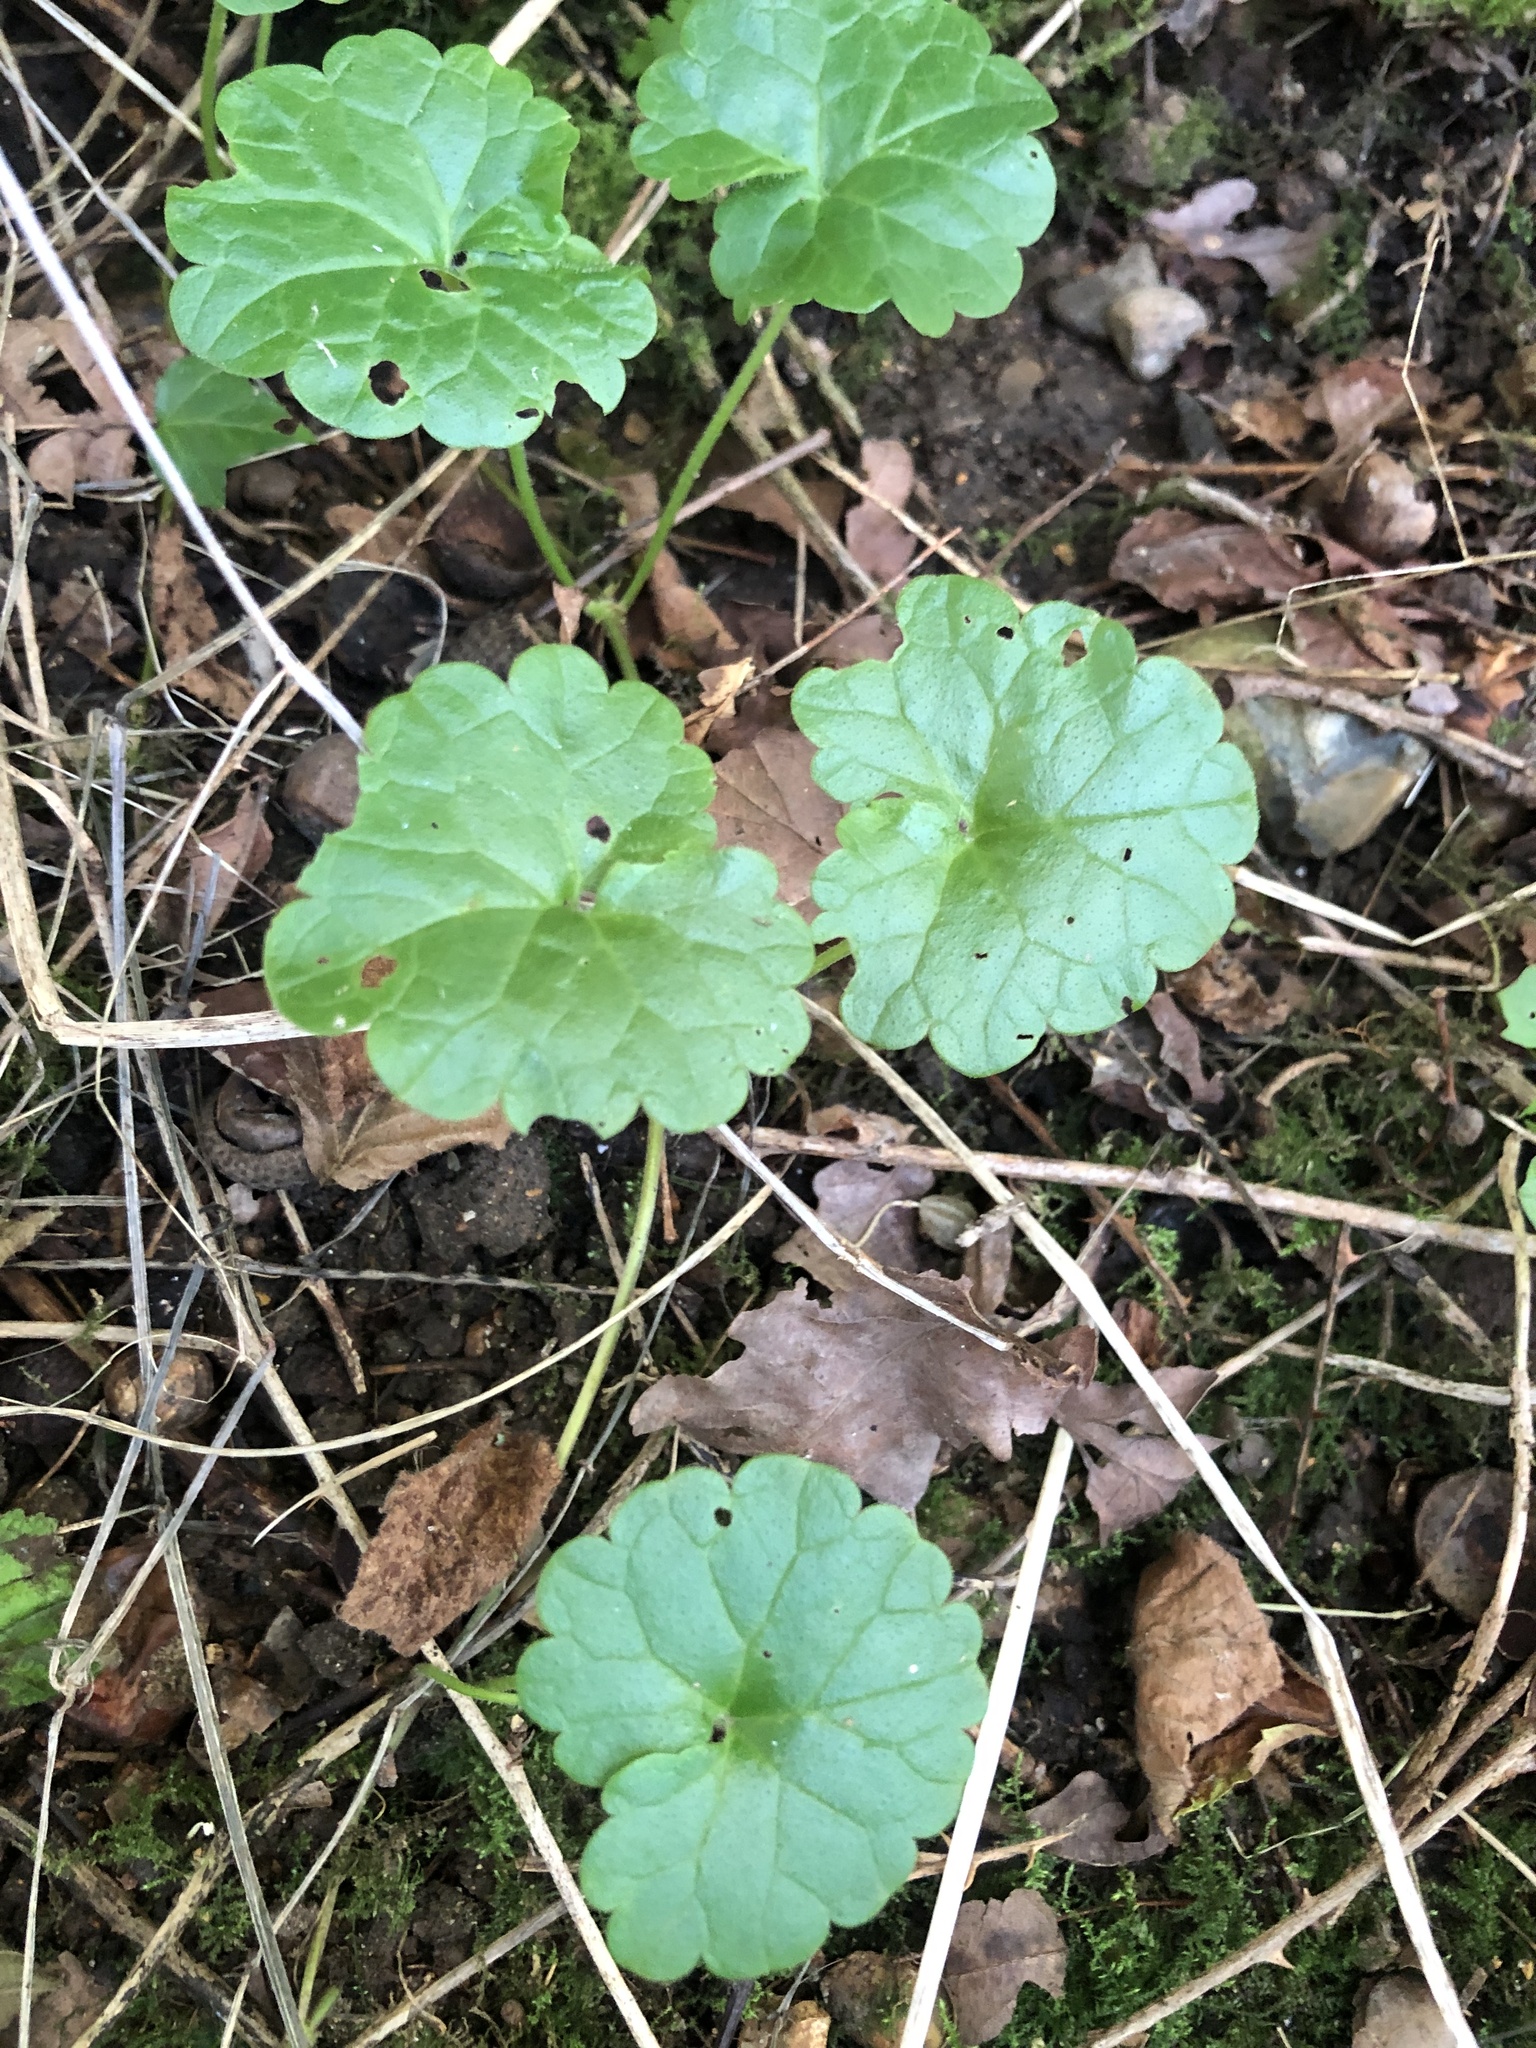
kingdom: Plantae
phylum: Tracheophyta
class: Magnoliopsida
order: Lamiales
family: Lamiaceae
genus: Glechoma
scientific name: Glechoma hederacea
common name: Ground ivy
